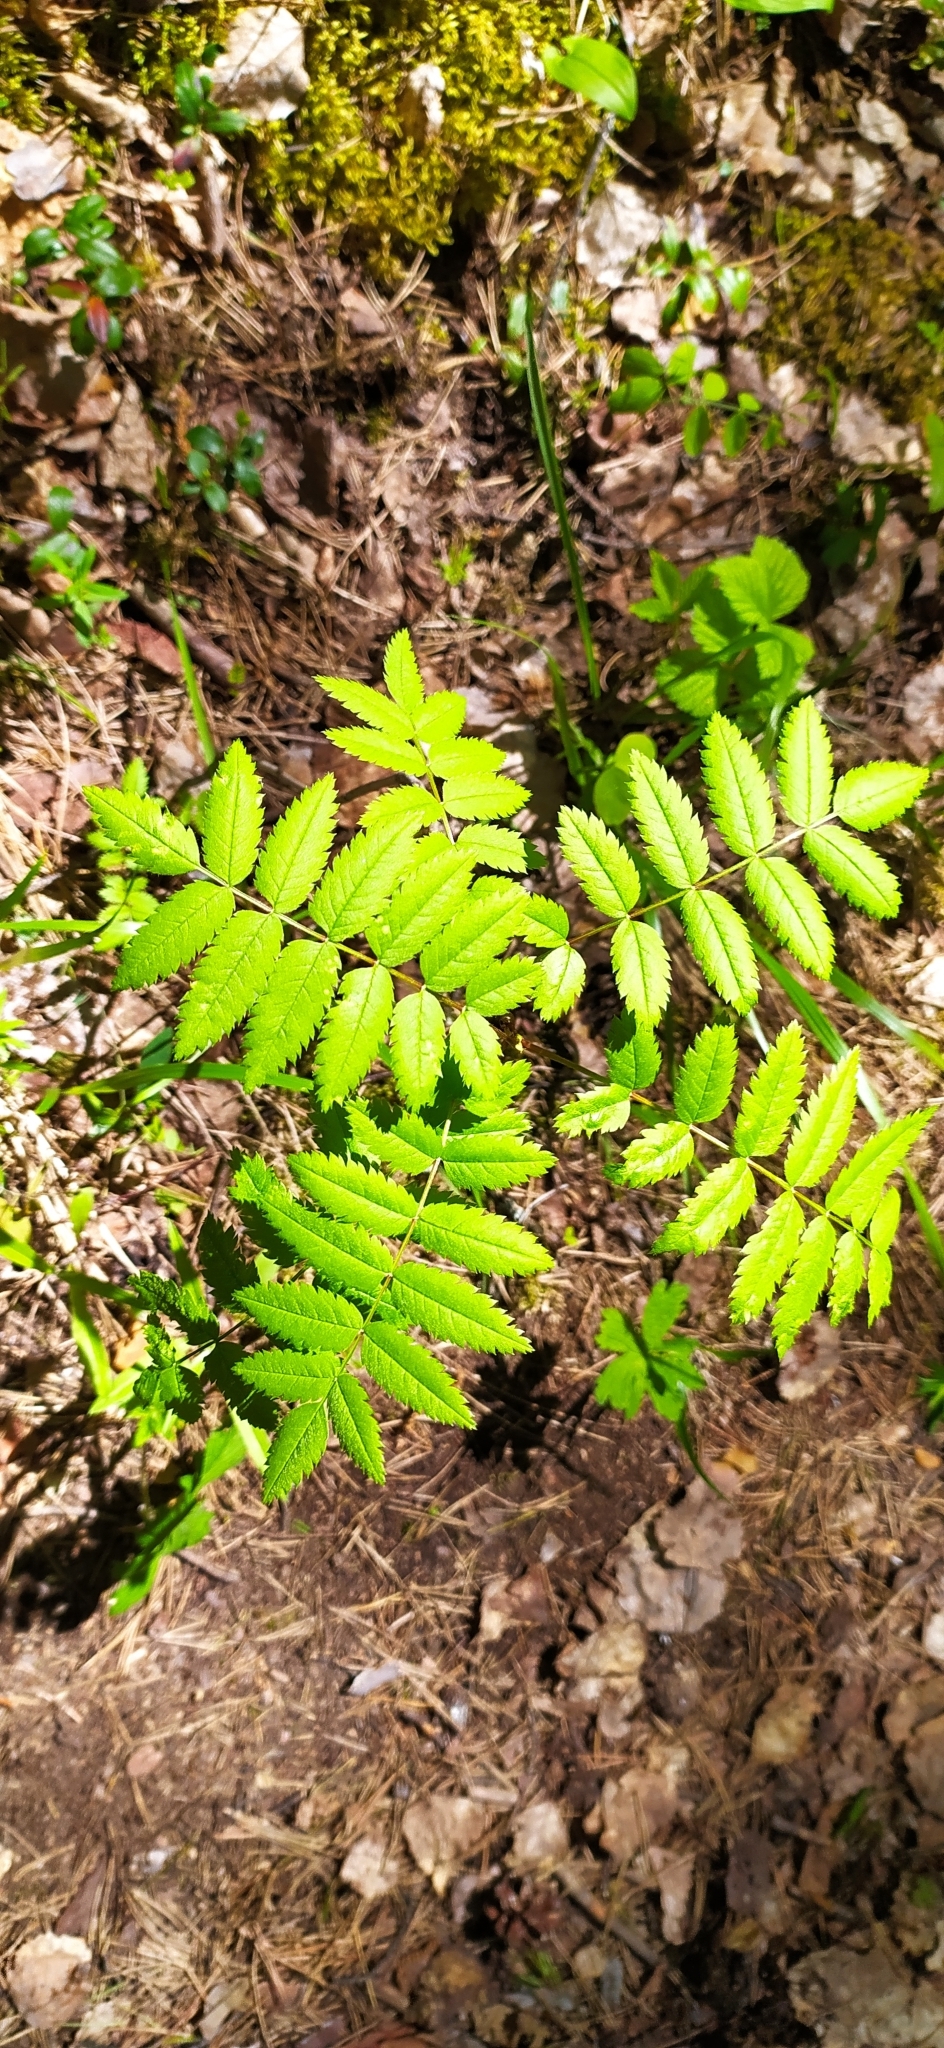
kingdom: Plantae
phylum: Tracheophyta
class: Magnoliopsida
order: Rosales
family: Rosaceae
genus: Sorbus
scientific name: Sorbus aucuparia
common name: Rowan
